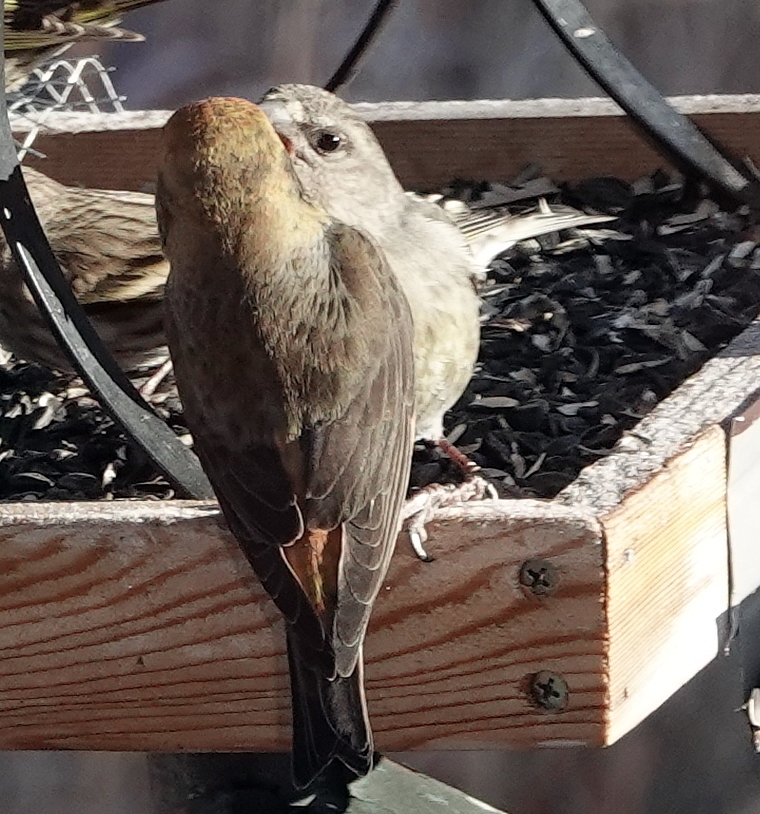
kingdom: Animalia
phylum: Chordata
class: Aves
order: Passeriformes
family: Fringillidae
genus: Loxia
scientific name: Loxia curvirostra
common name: Red crossbill
